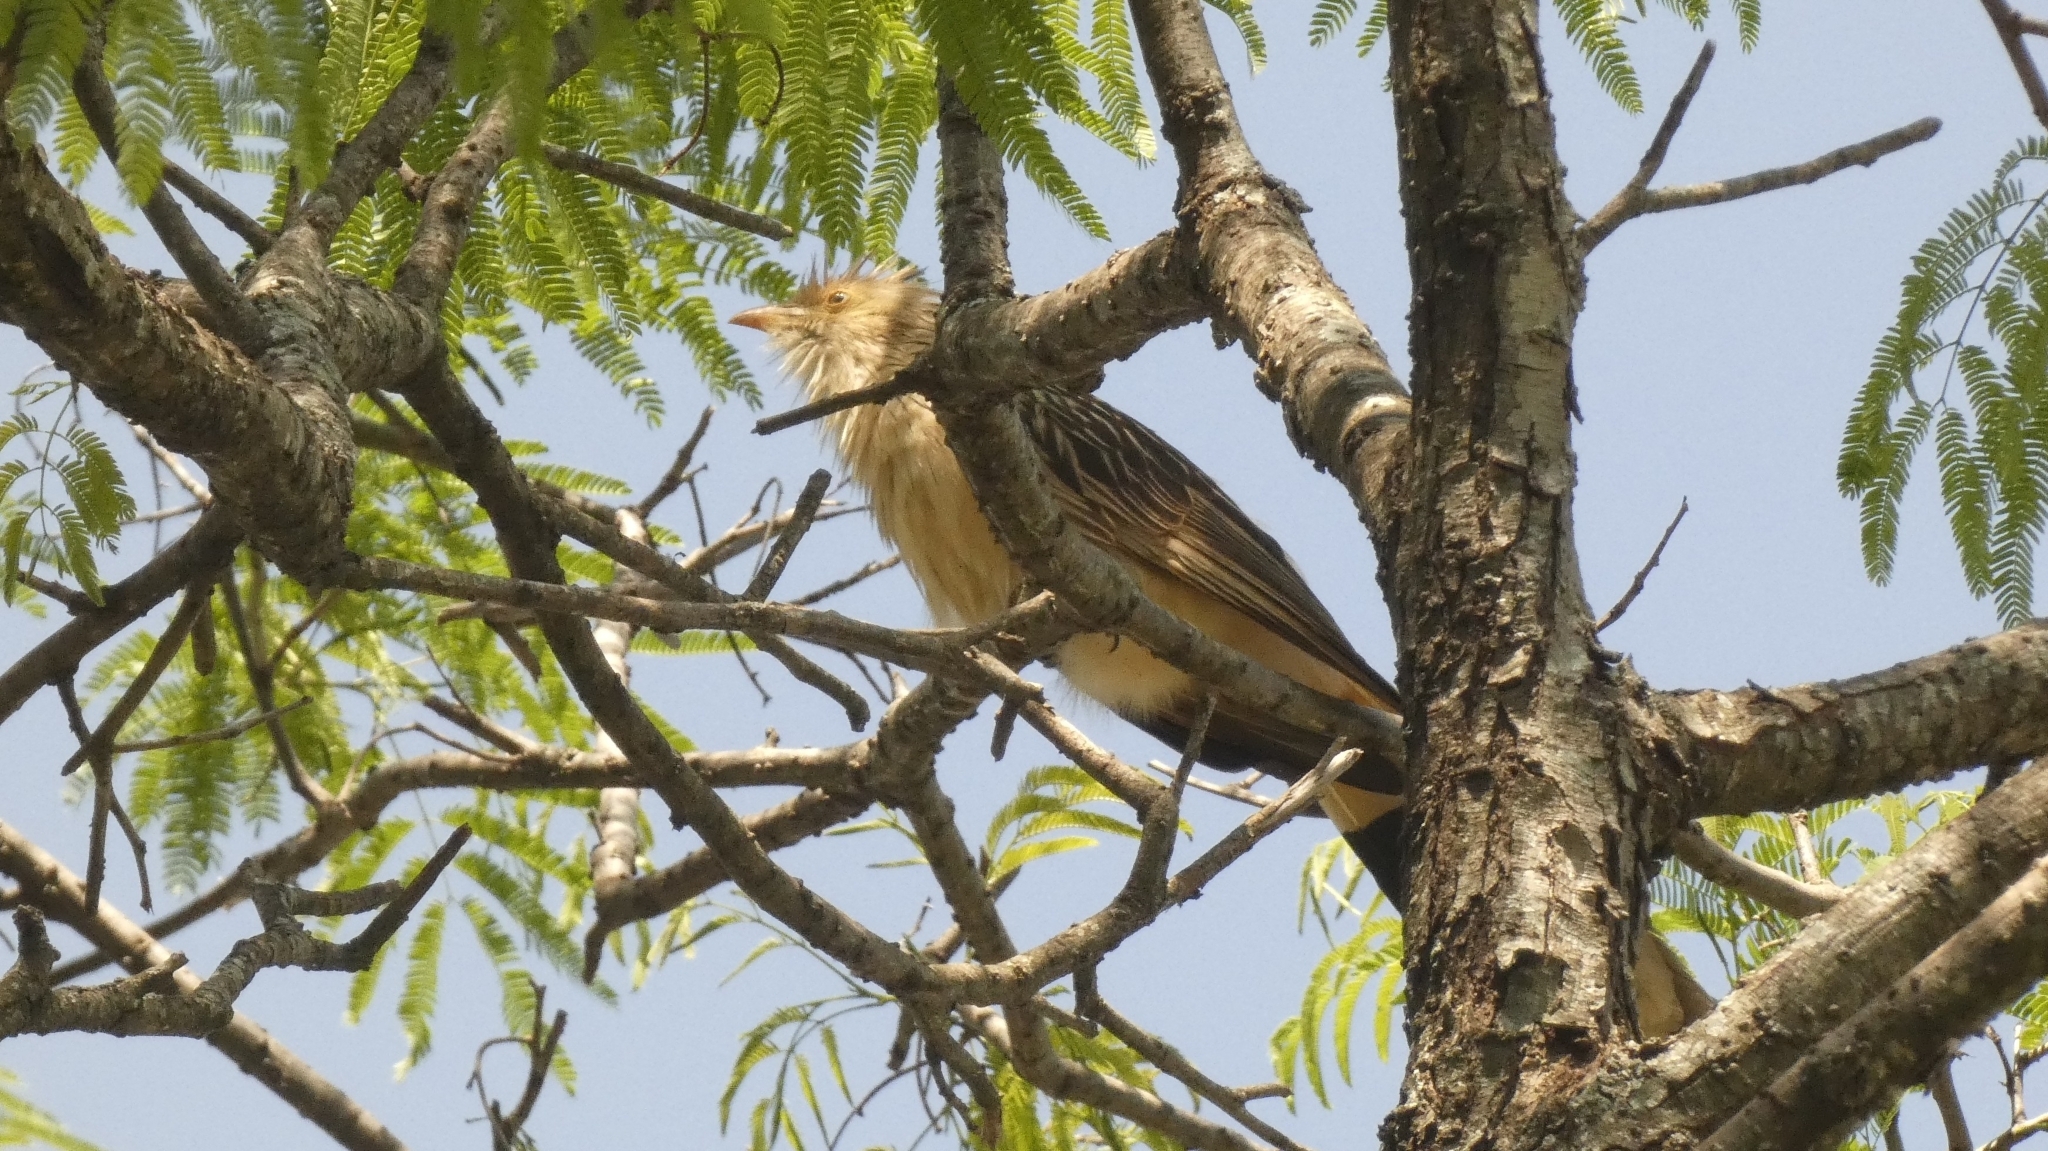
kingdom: Animalia
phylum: Chordata
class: Aves
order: Cuculiformes
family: Cuculidae
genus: Guira
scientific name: Guira guira
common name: Guira cuckoo
